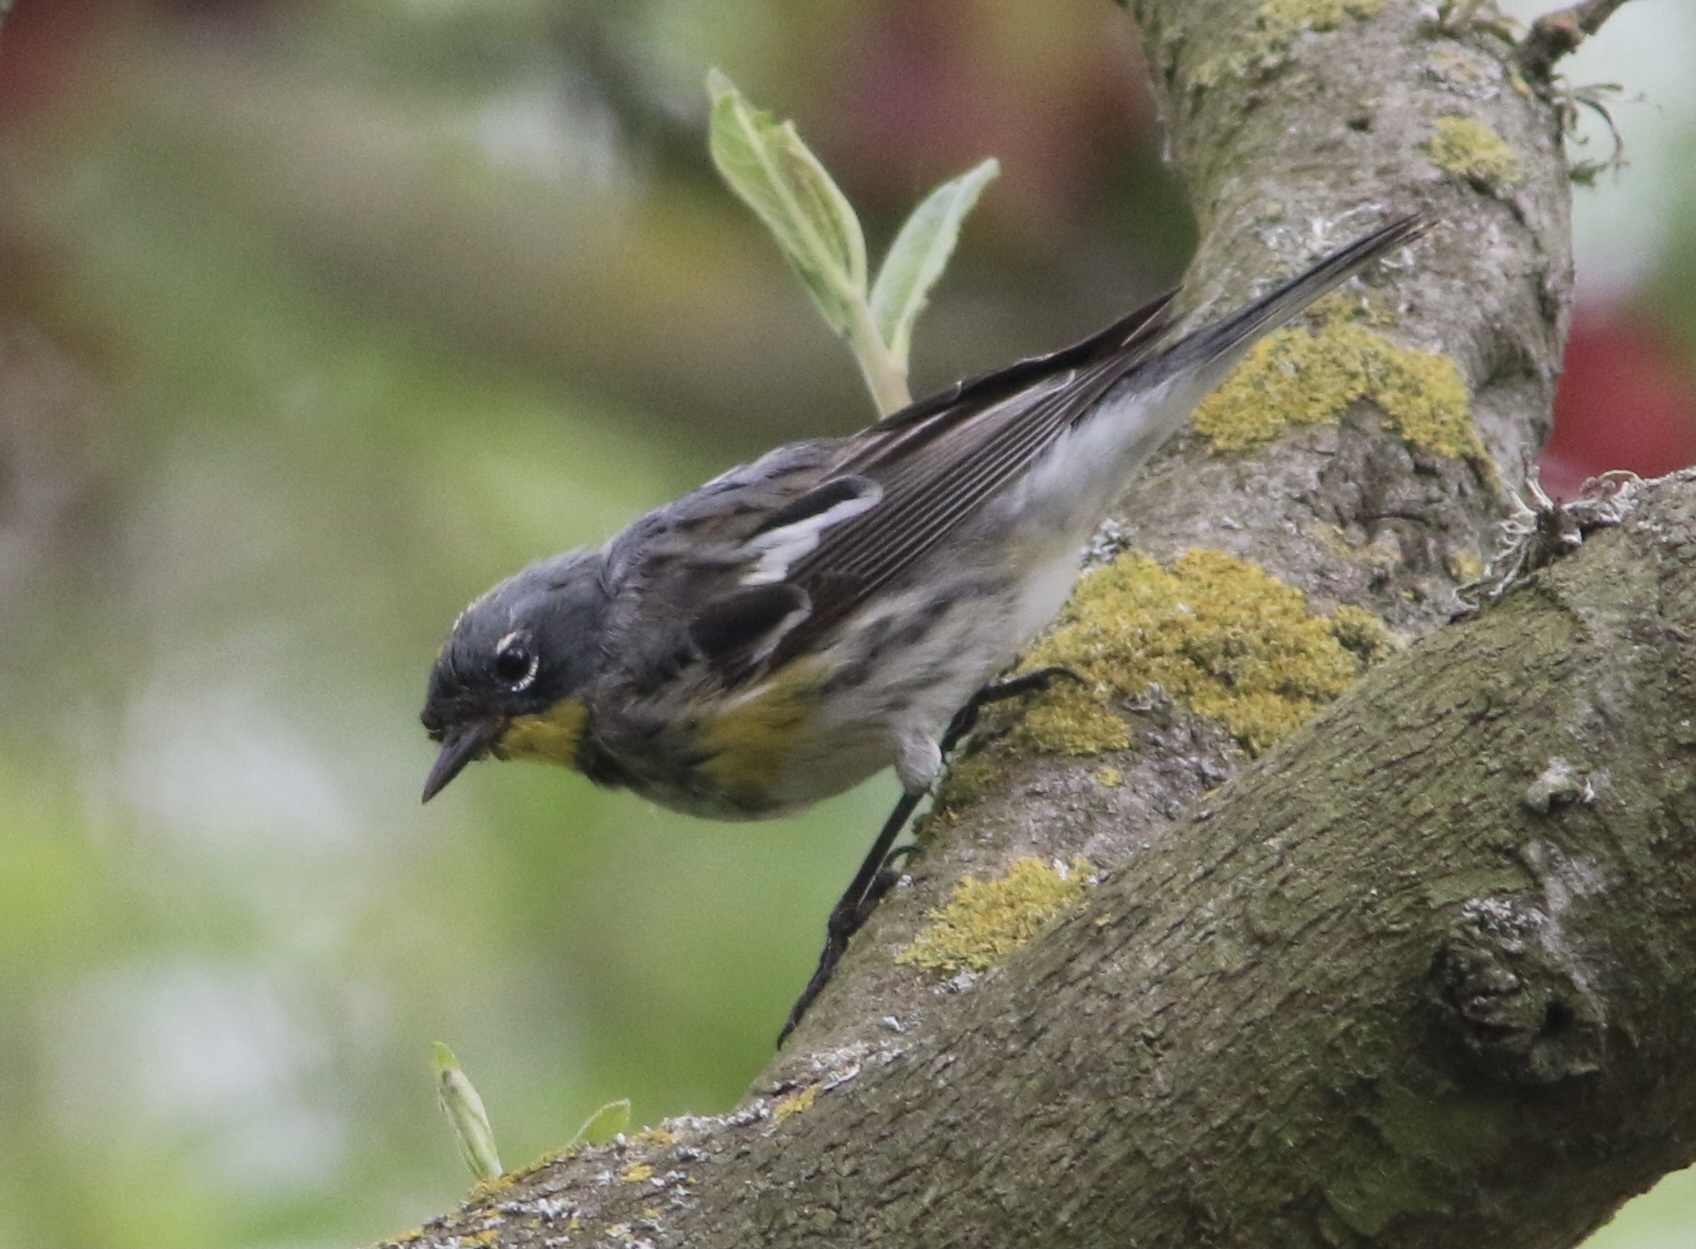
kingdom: Animalia
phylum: Chordata
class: Aves
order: Passeriformes
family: Parulidae
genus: Setophaga
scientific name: Setophaga coronata
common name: Myrtle warbler
